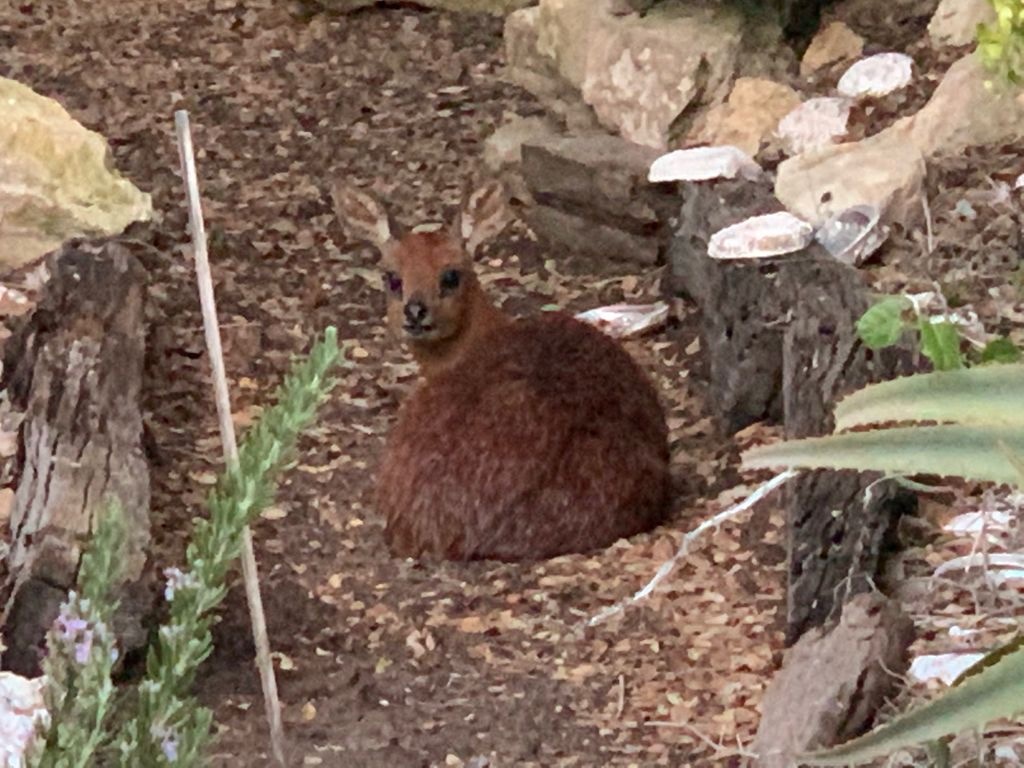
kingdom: Animalia
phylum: Chordata
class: Mammalia
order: Artiodactyla
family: Bovidae
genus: Raphicerus
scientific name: Raphicerus melanotis
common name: Cape grysbok
